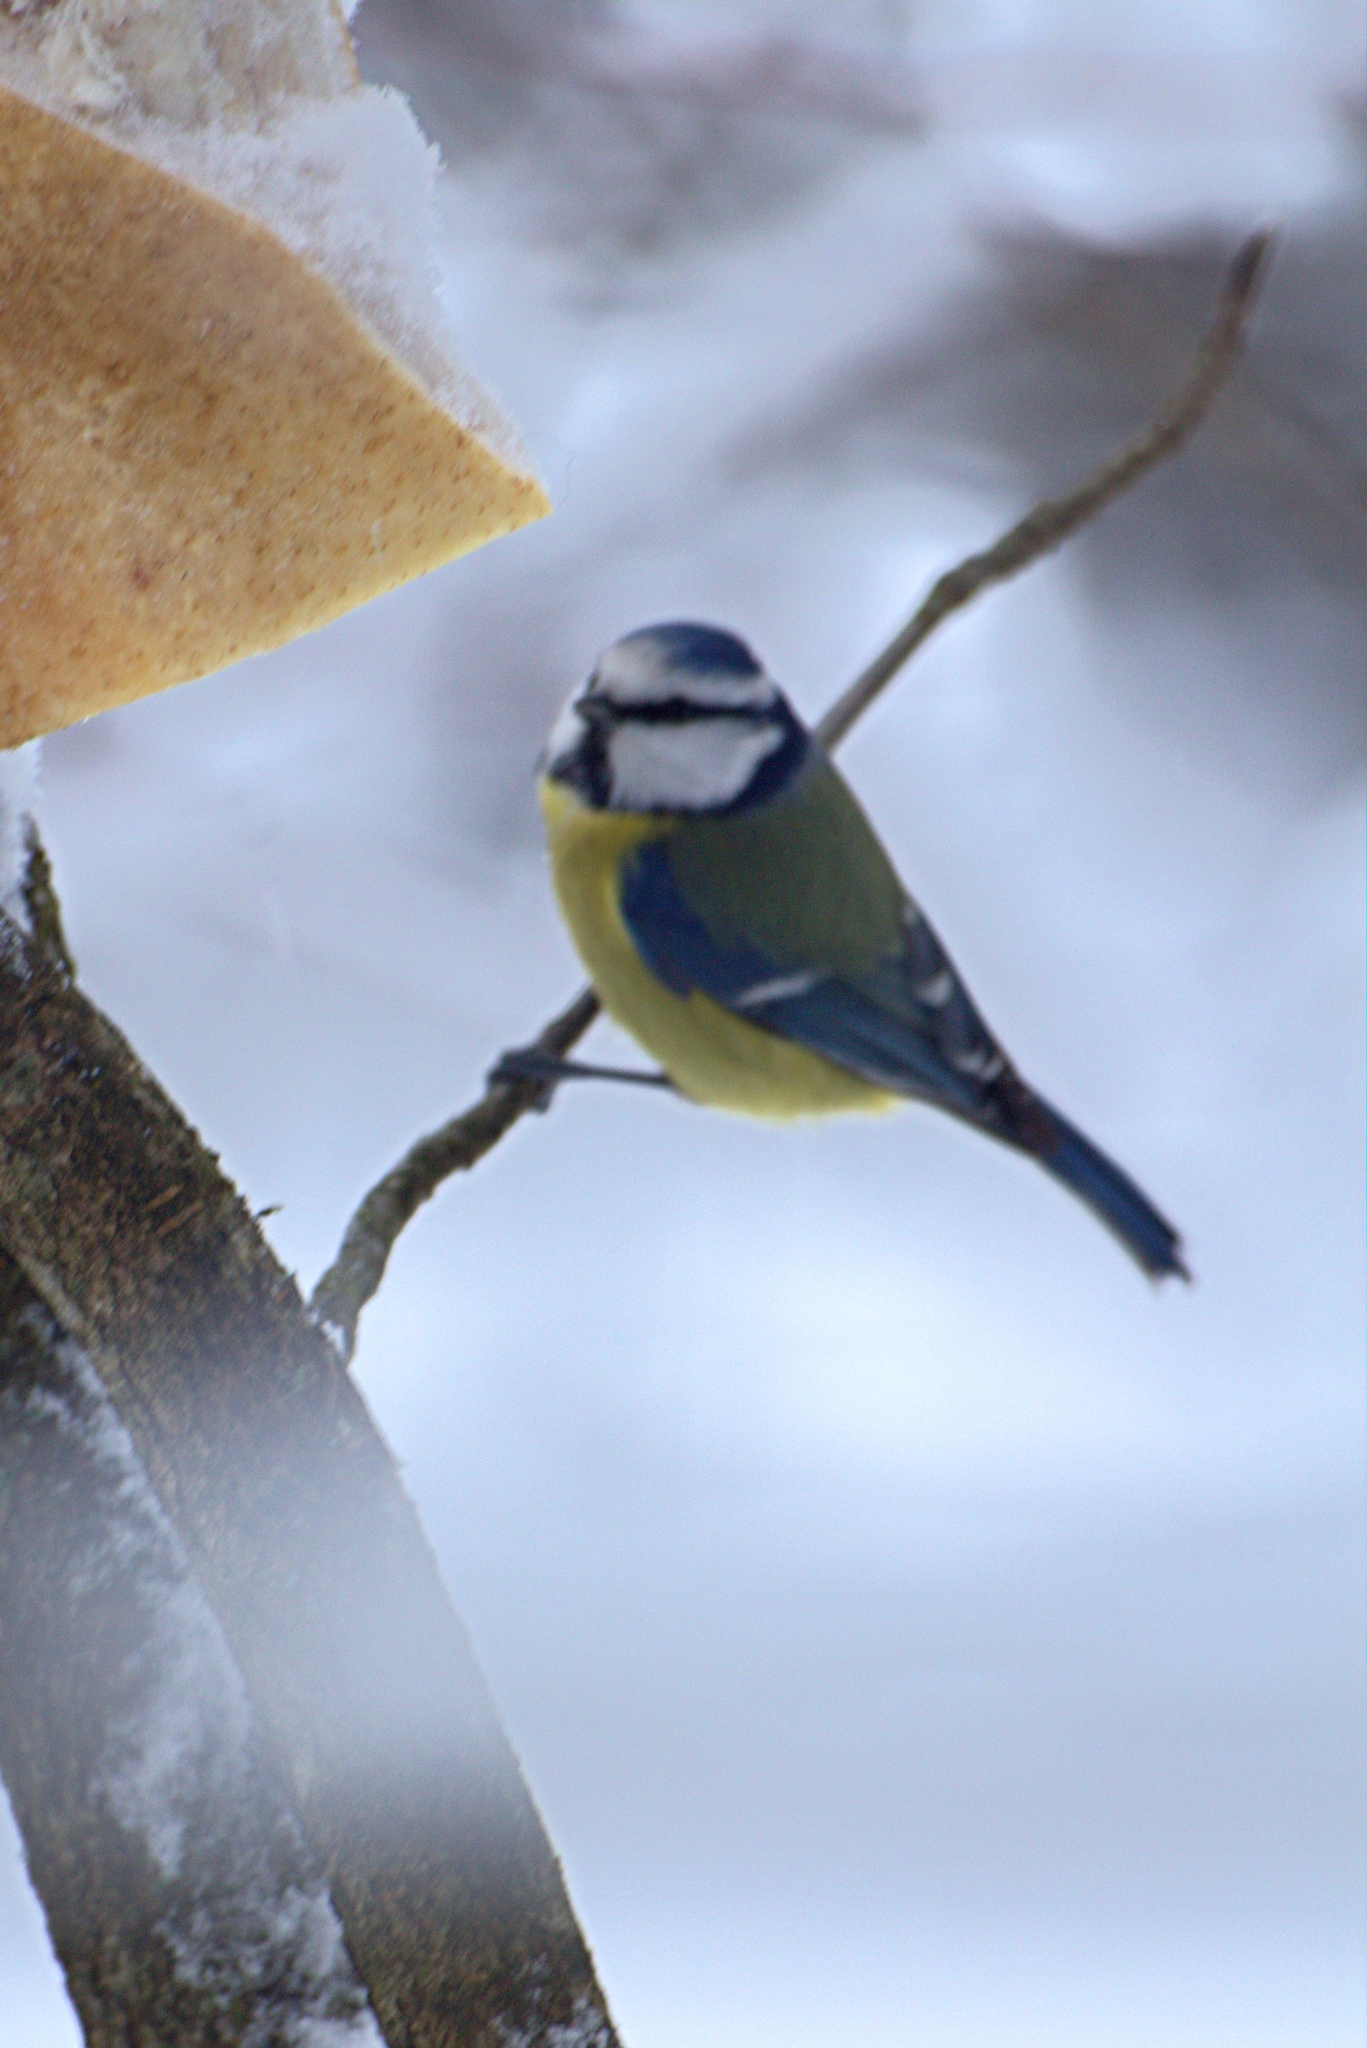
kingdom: Animalia
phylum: Chordata
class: Aves
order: Passeriformes
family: Paridae
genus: Cyanistes
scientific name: Cyanistes caeruleus
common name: Eurasian blue tit
